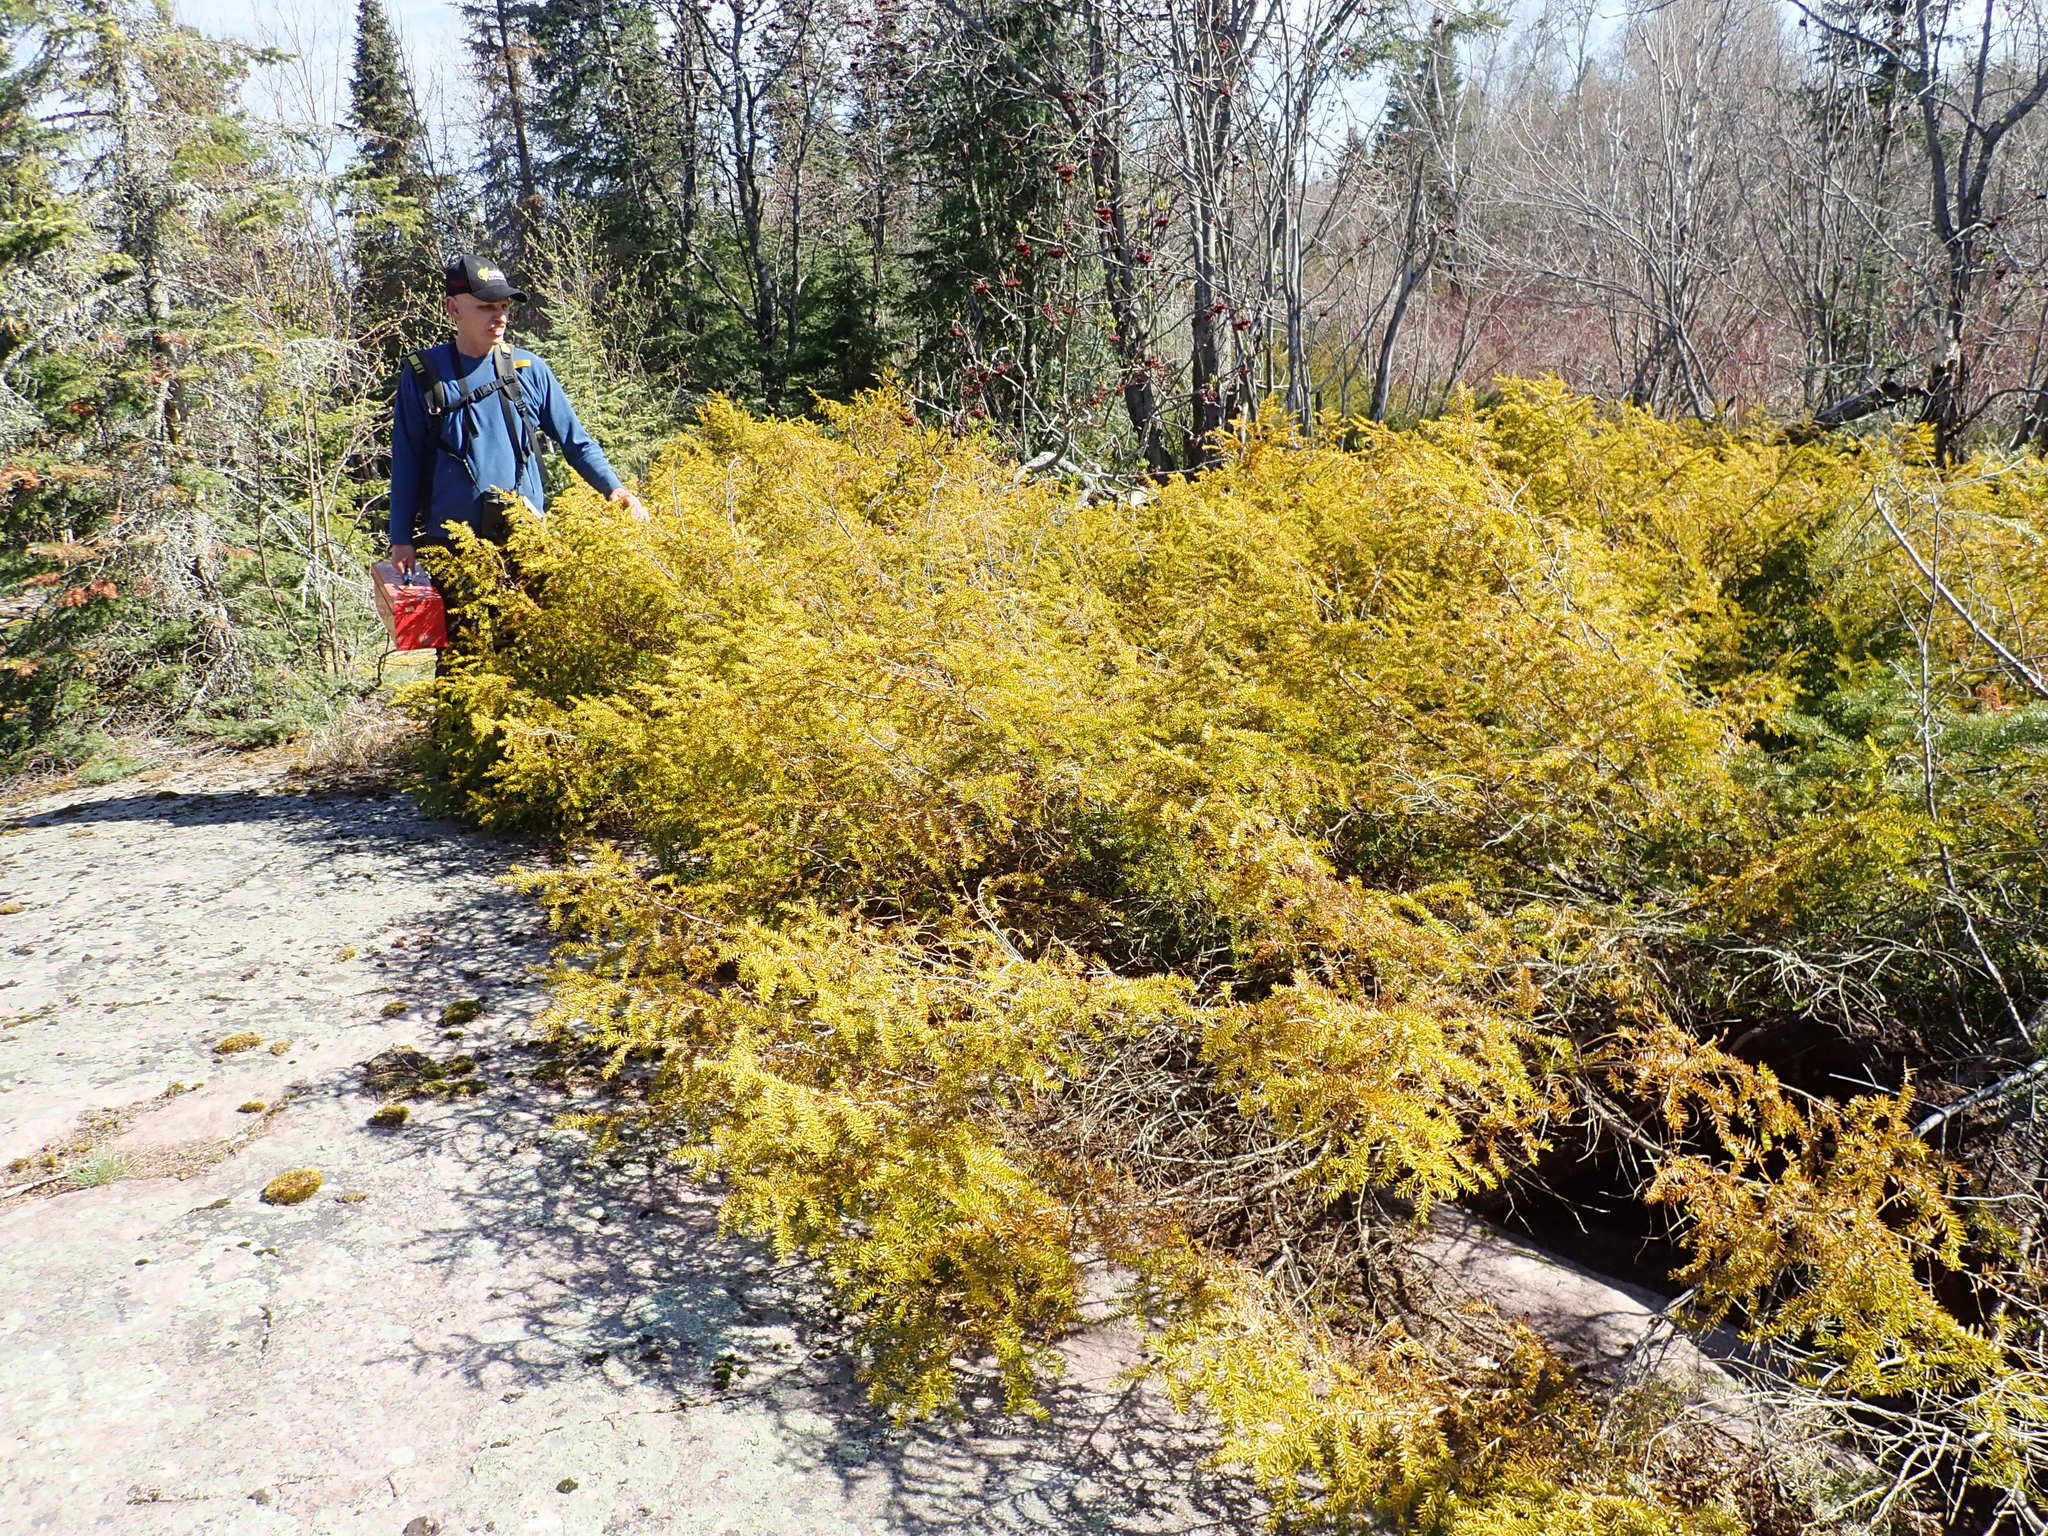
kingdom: Plantae
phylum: Tracheophyta
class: Pinopsida
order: Pinales
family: Taxaceae
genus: Taxus
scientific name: Taxus canadensis
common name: American yew
